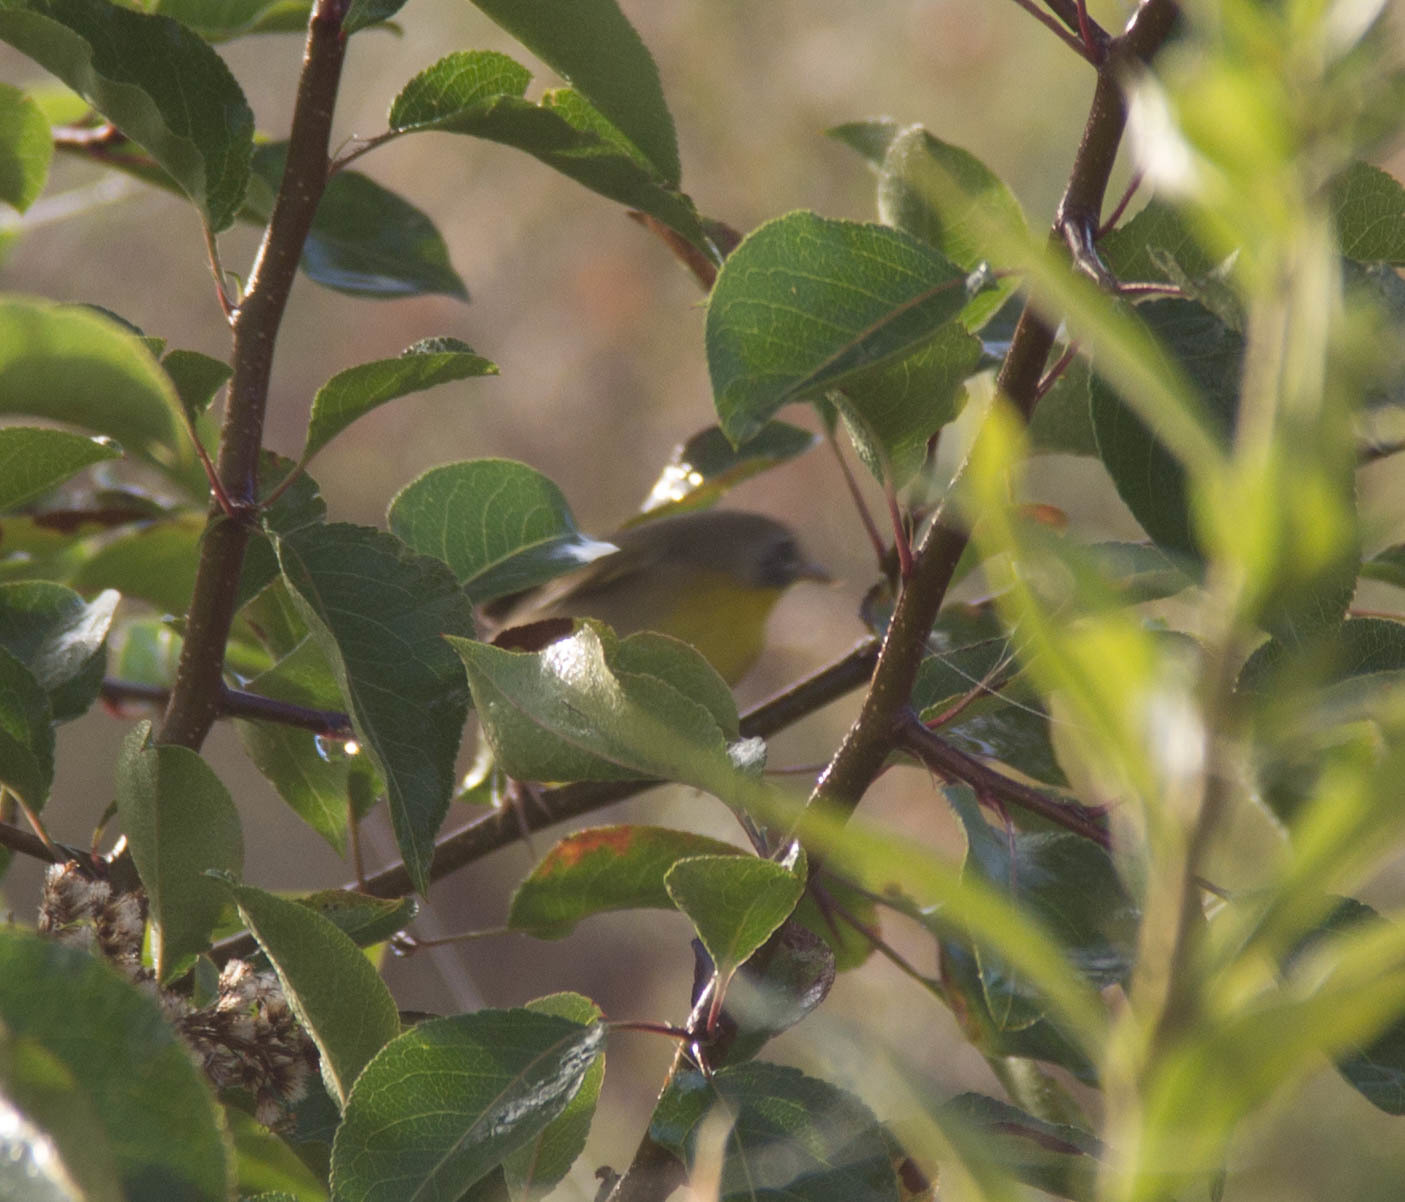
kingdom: Animalia
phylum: Chordata
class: Aves
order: Passeriformes
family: Parulidae
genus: Geothlypis
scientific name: Geothlypis trichas
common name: Common yellowthroat
